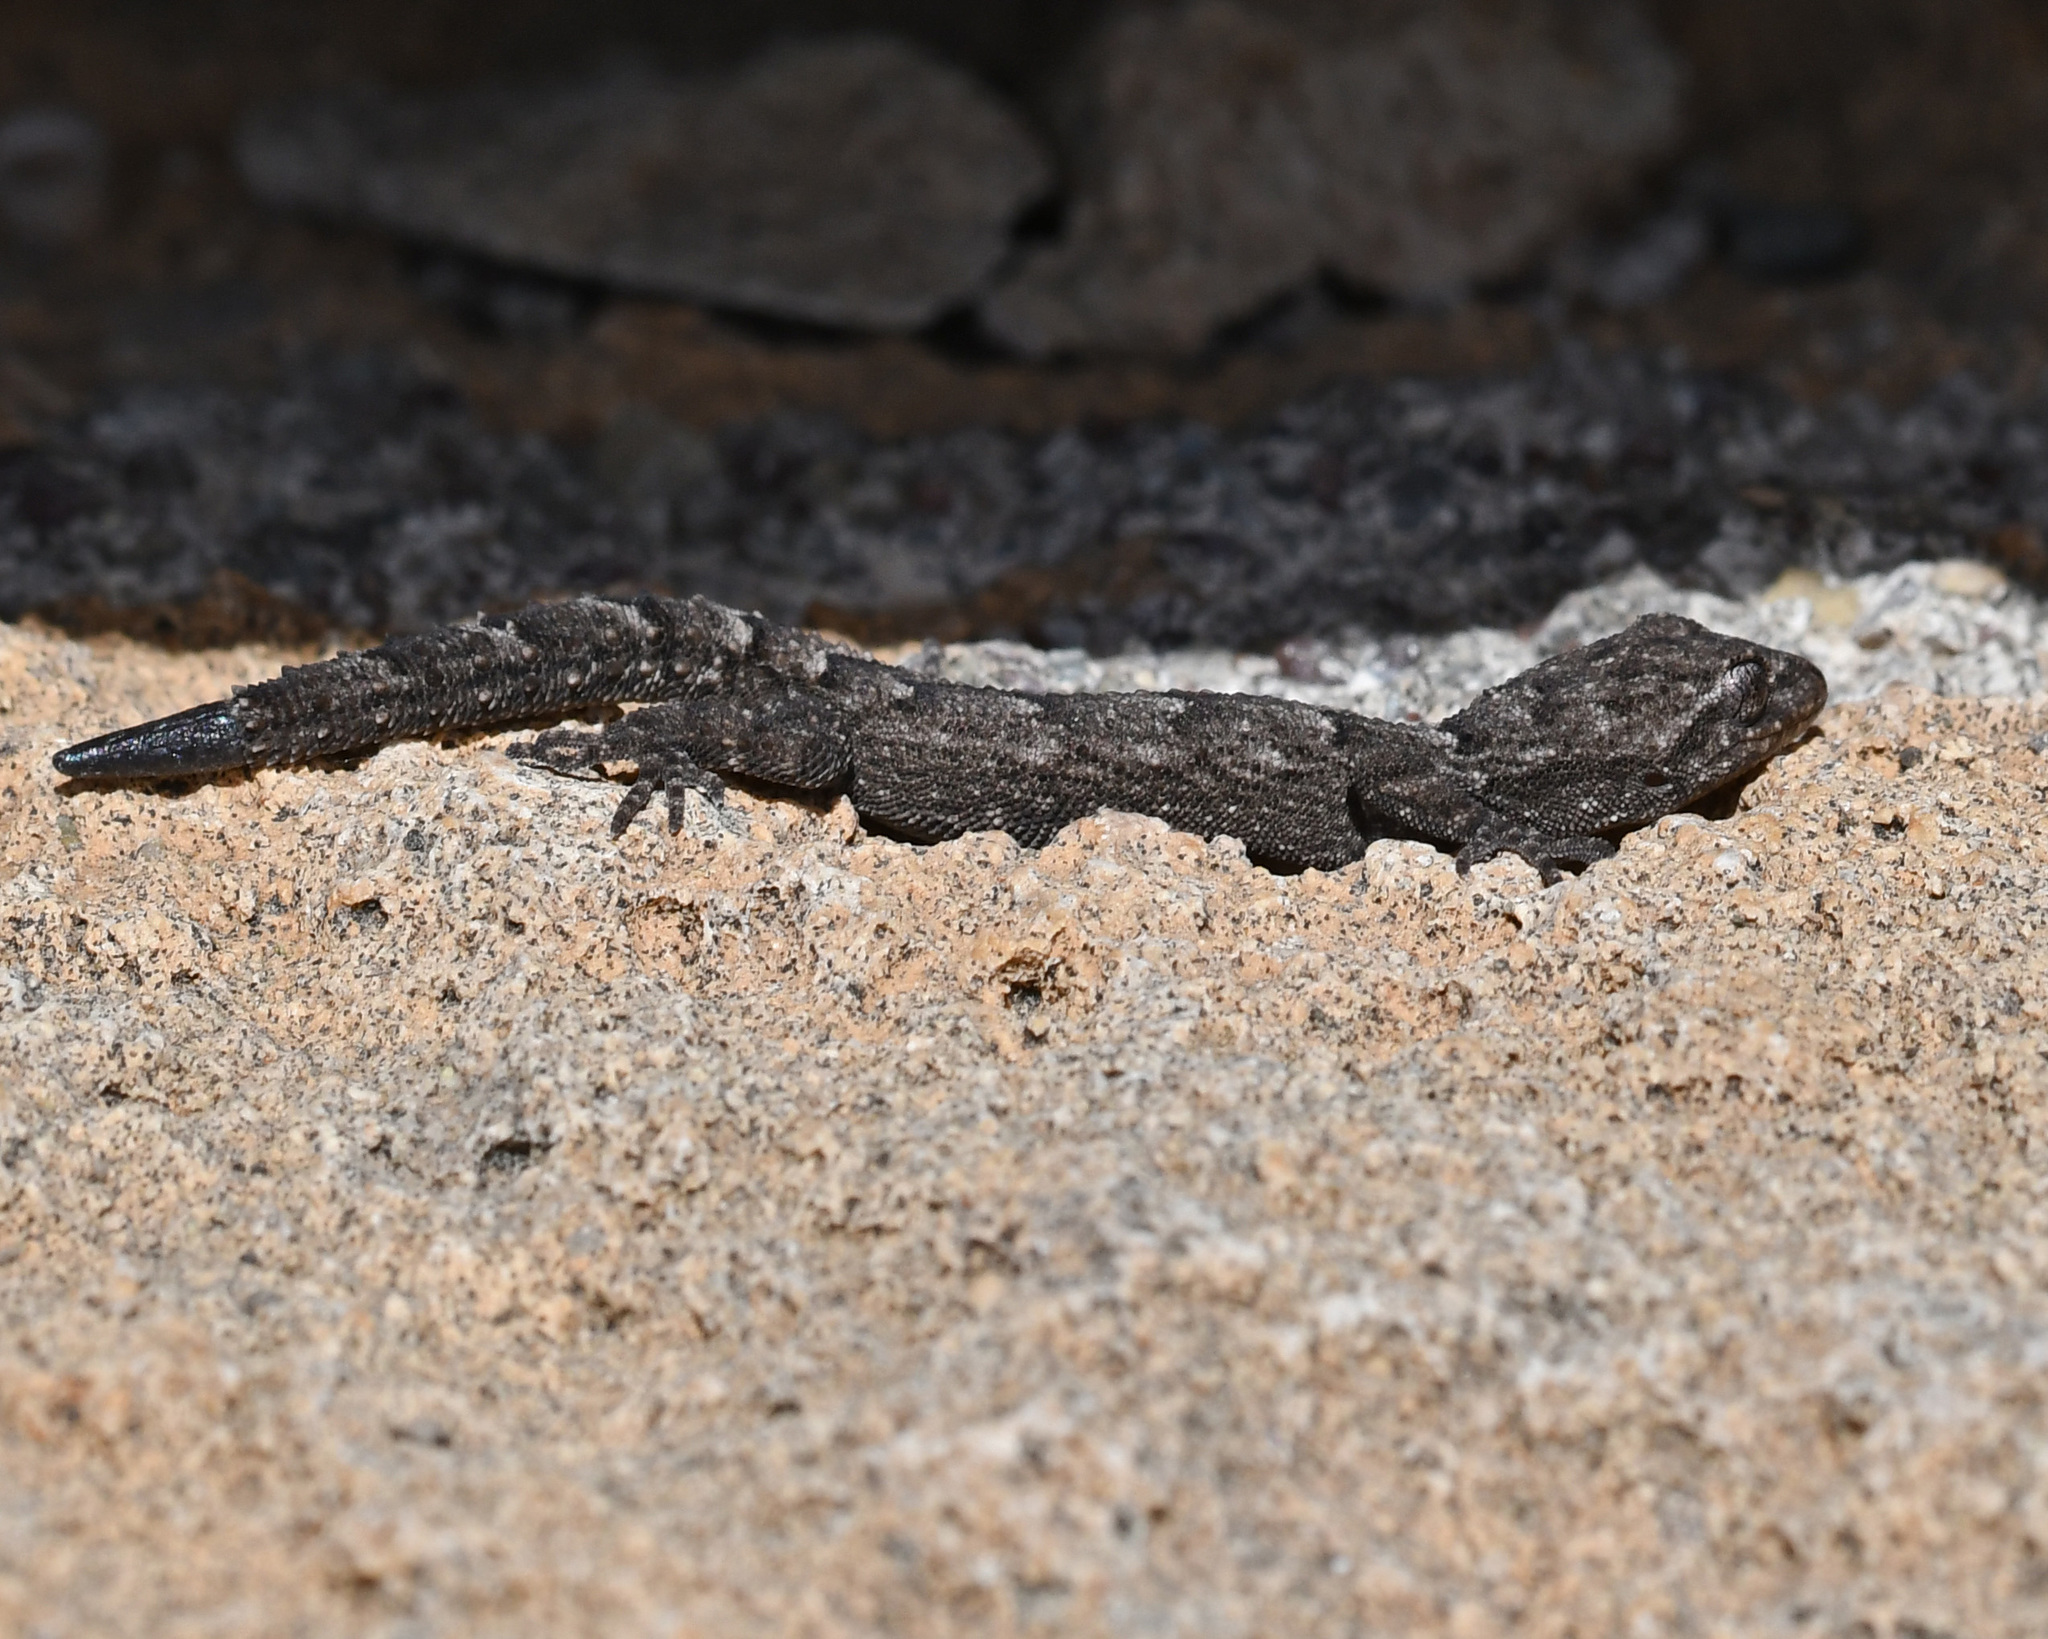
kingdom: Animalia
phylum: Chordata
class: Squamata
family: Gekkonidae
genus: Mediodactylus
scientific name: Mediodactylus orientalis
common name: Mediterranean thin-toed gecko
